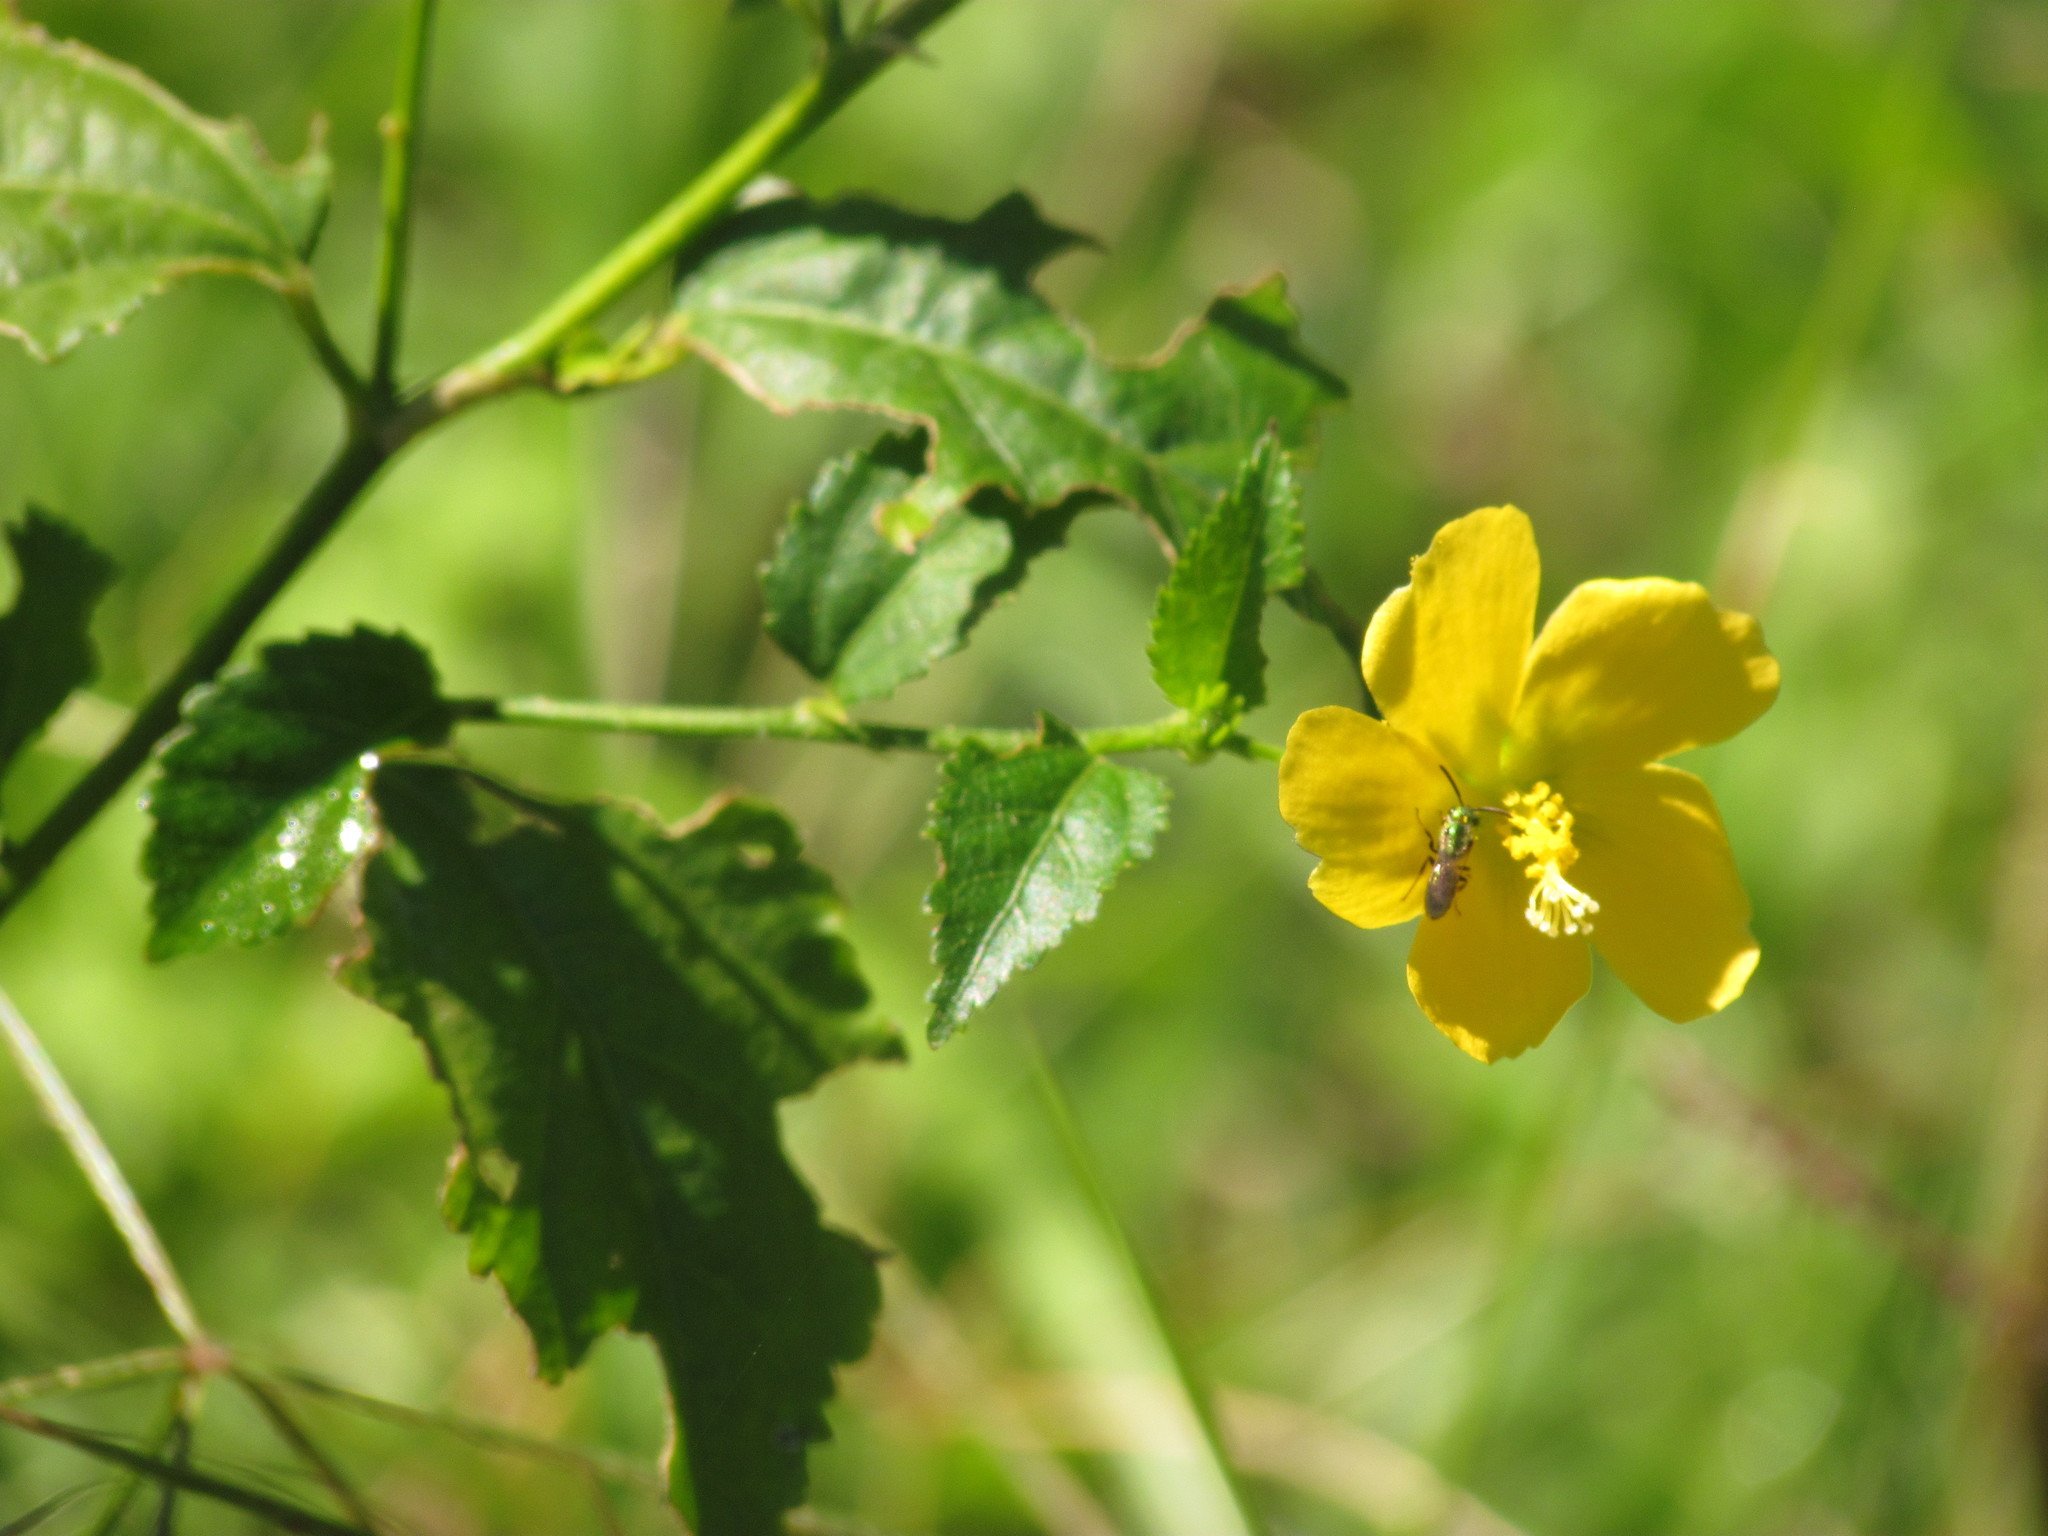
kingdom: Plantae
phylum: Tracheophyta
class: Magnoliopsida
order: Malvales
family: Malvaceae
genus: Pavonia
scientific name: Pavonia sepium
